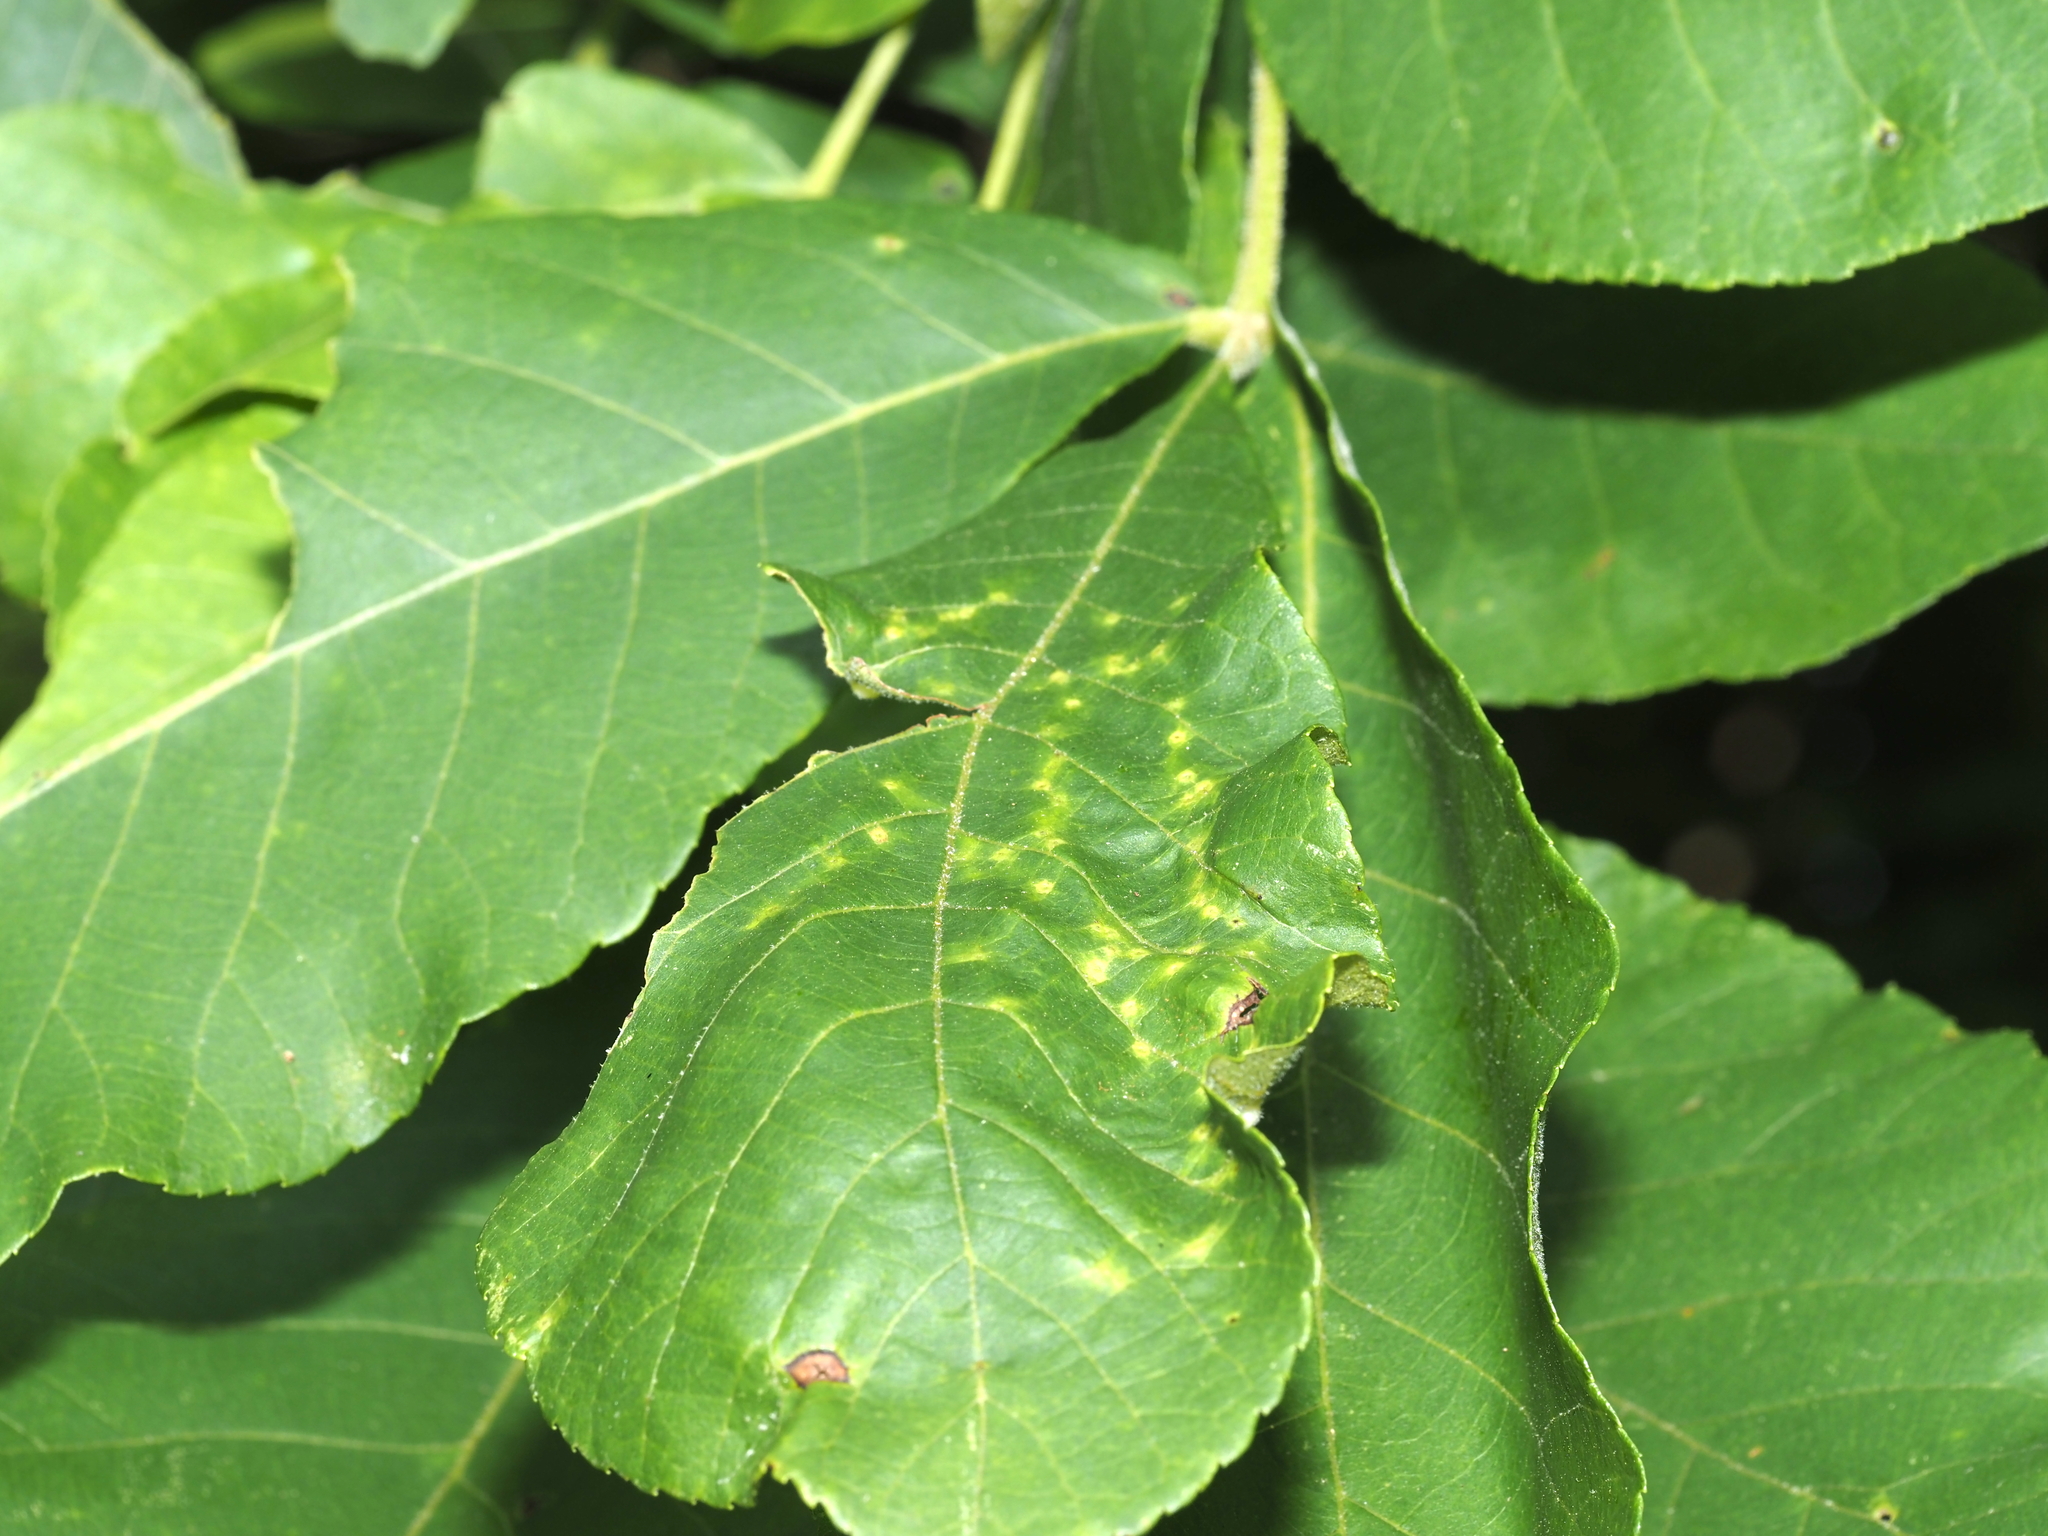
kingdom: Animalia
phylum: Arthropoda
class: Insecta
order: Diptera
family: Cecidomyiidae
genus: Caryomyia
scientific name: Caryomyia thompsoni
